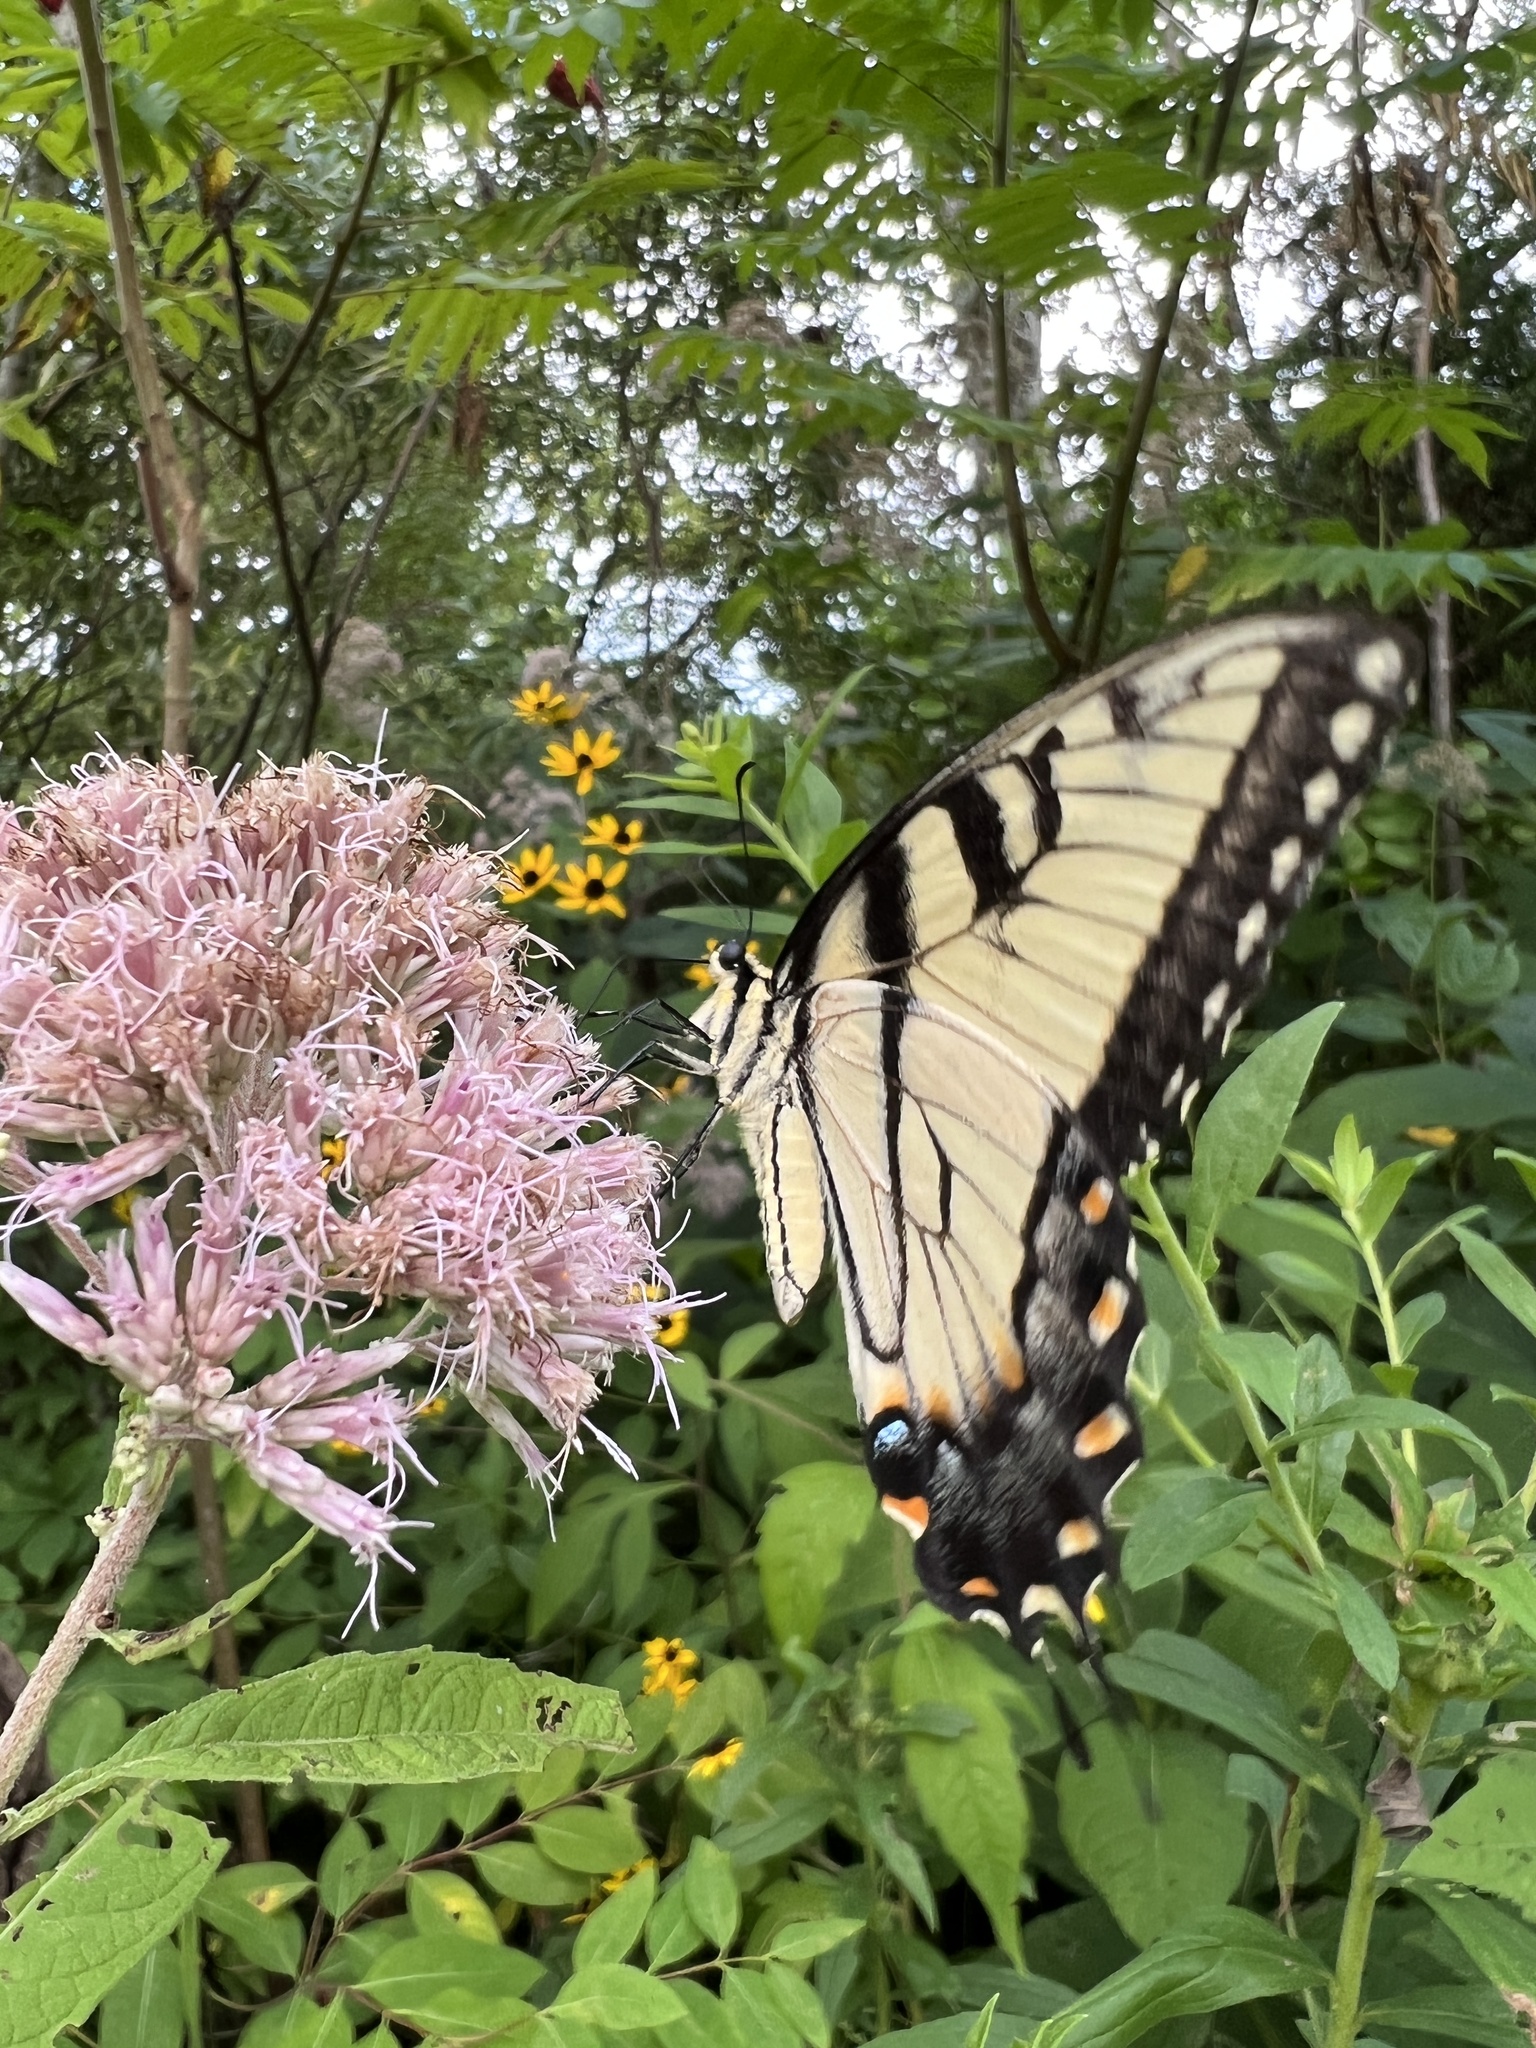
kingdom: Animalia
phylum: Arthropoda
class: Insecta
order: Lepidoptera
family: Papilionidae
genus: Papilio
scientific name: Papilio glaucus
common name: Tiger swallowtail
